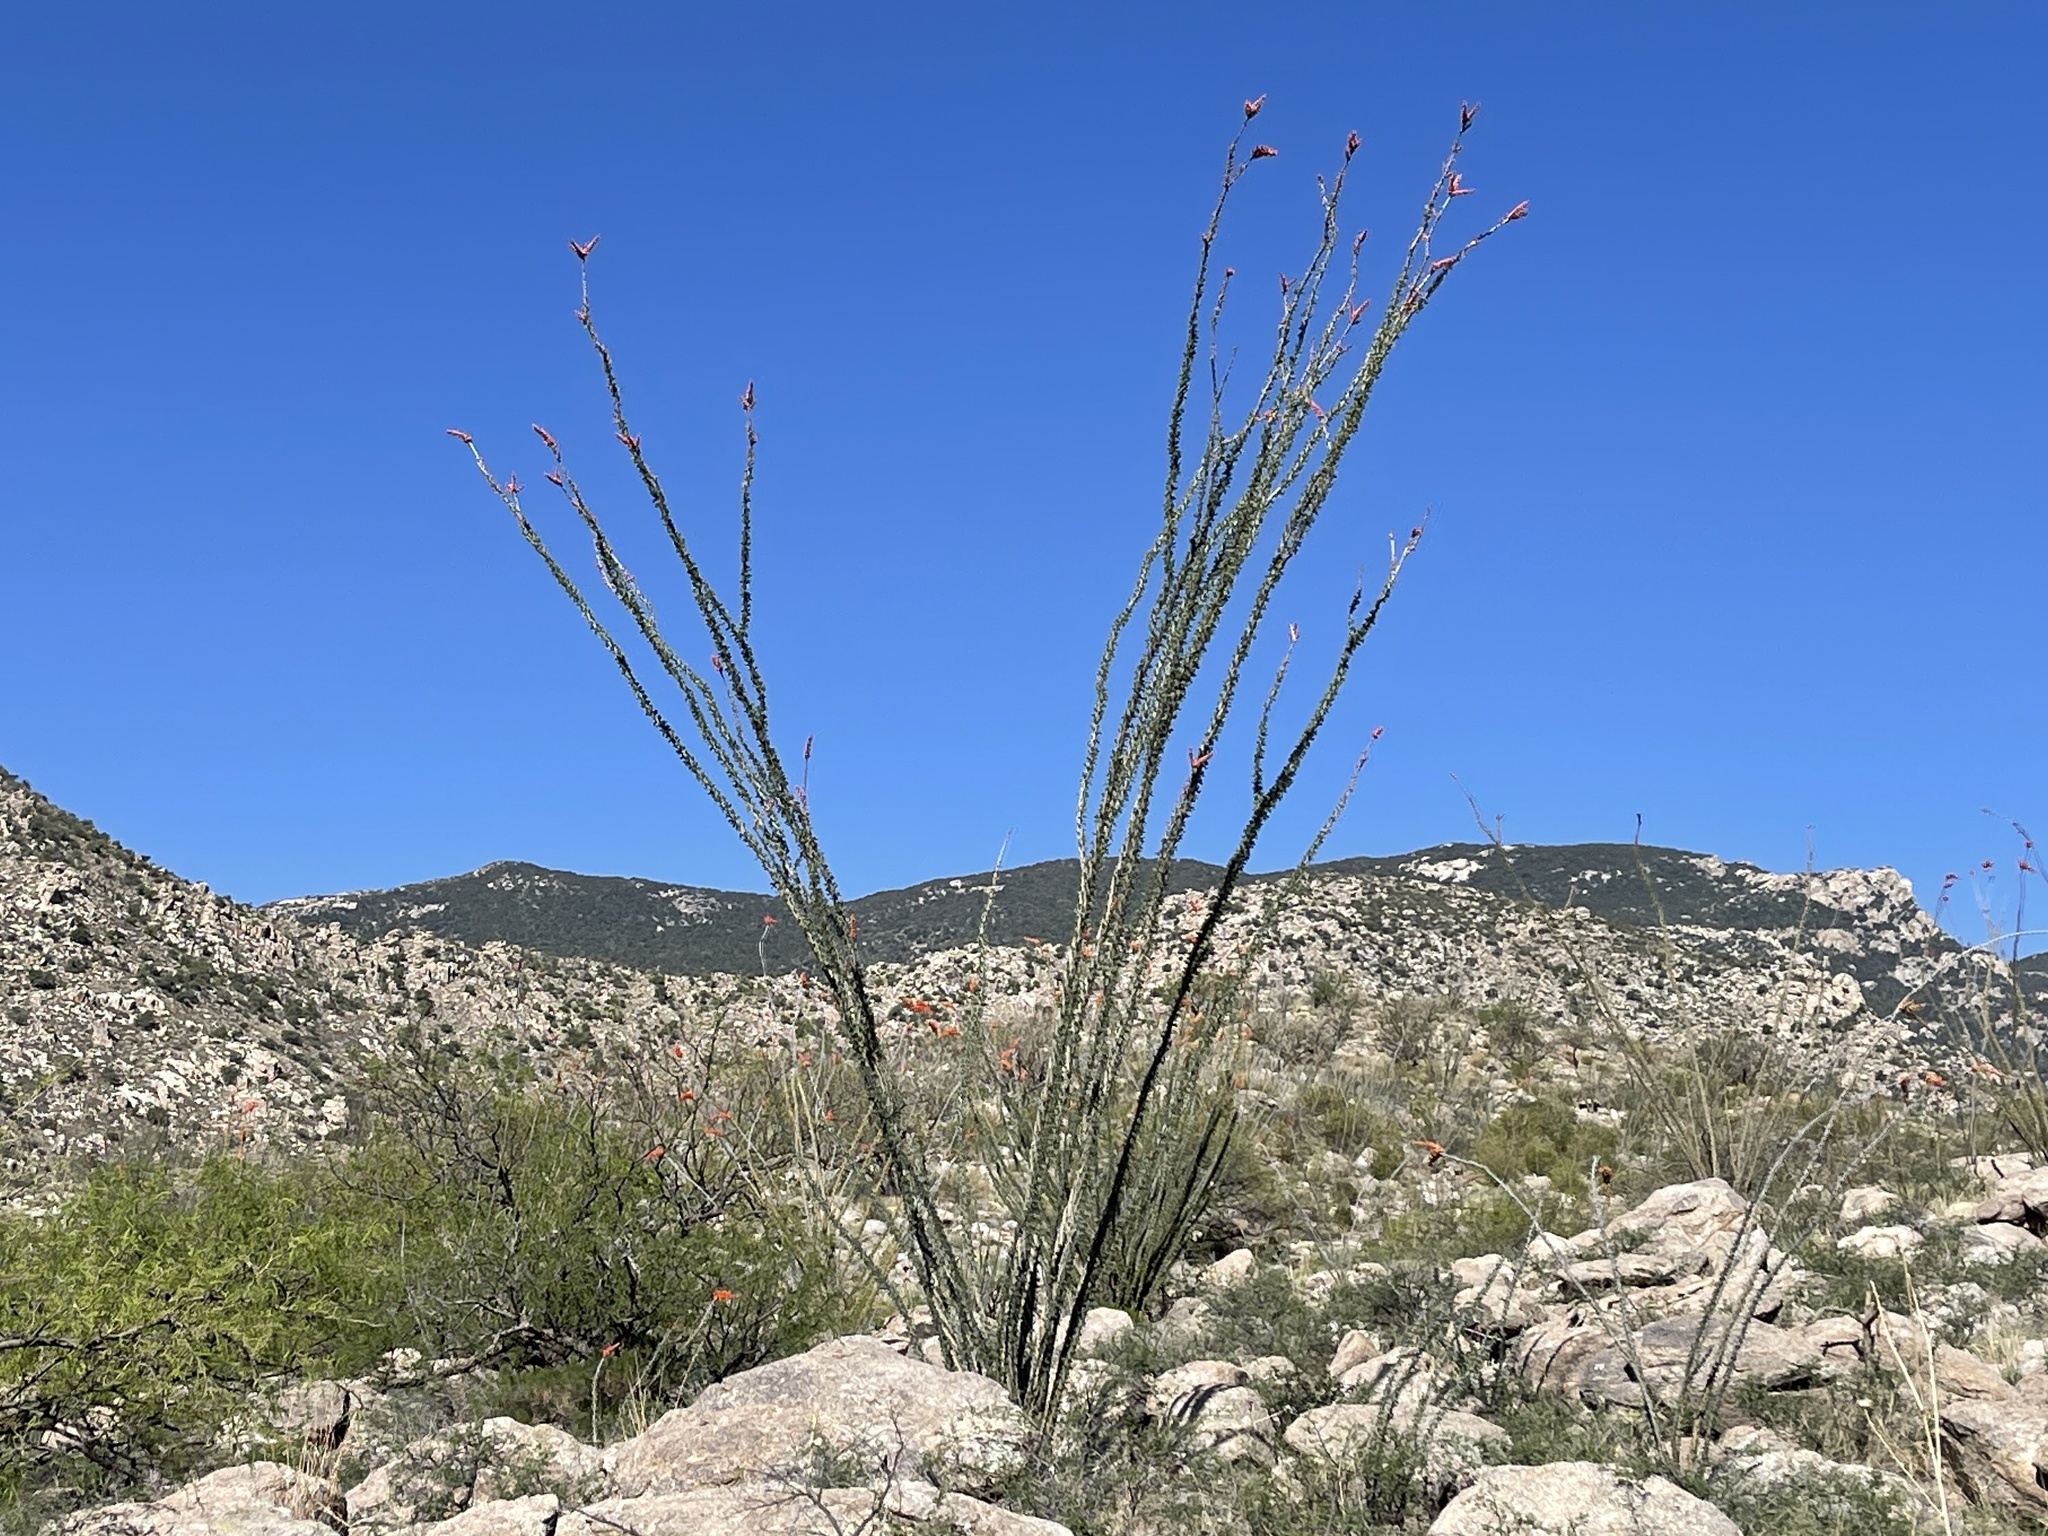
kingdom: Plantae
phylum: Tracheophyta
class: Magnoliopsida
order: Ericales
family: Fouquieriaceae
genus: Fouquieria
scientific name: Fouquieria splendens
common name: Vine-cactus
